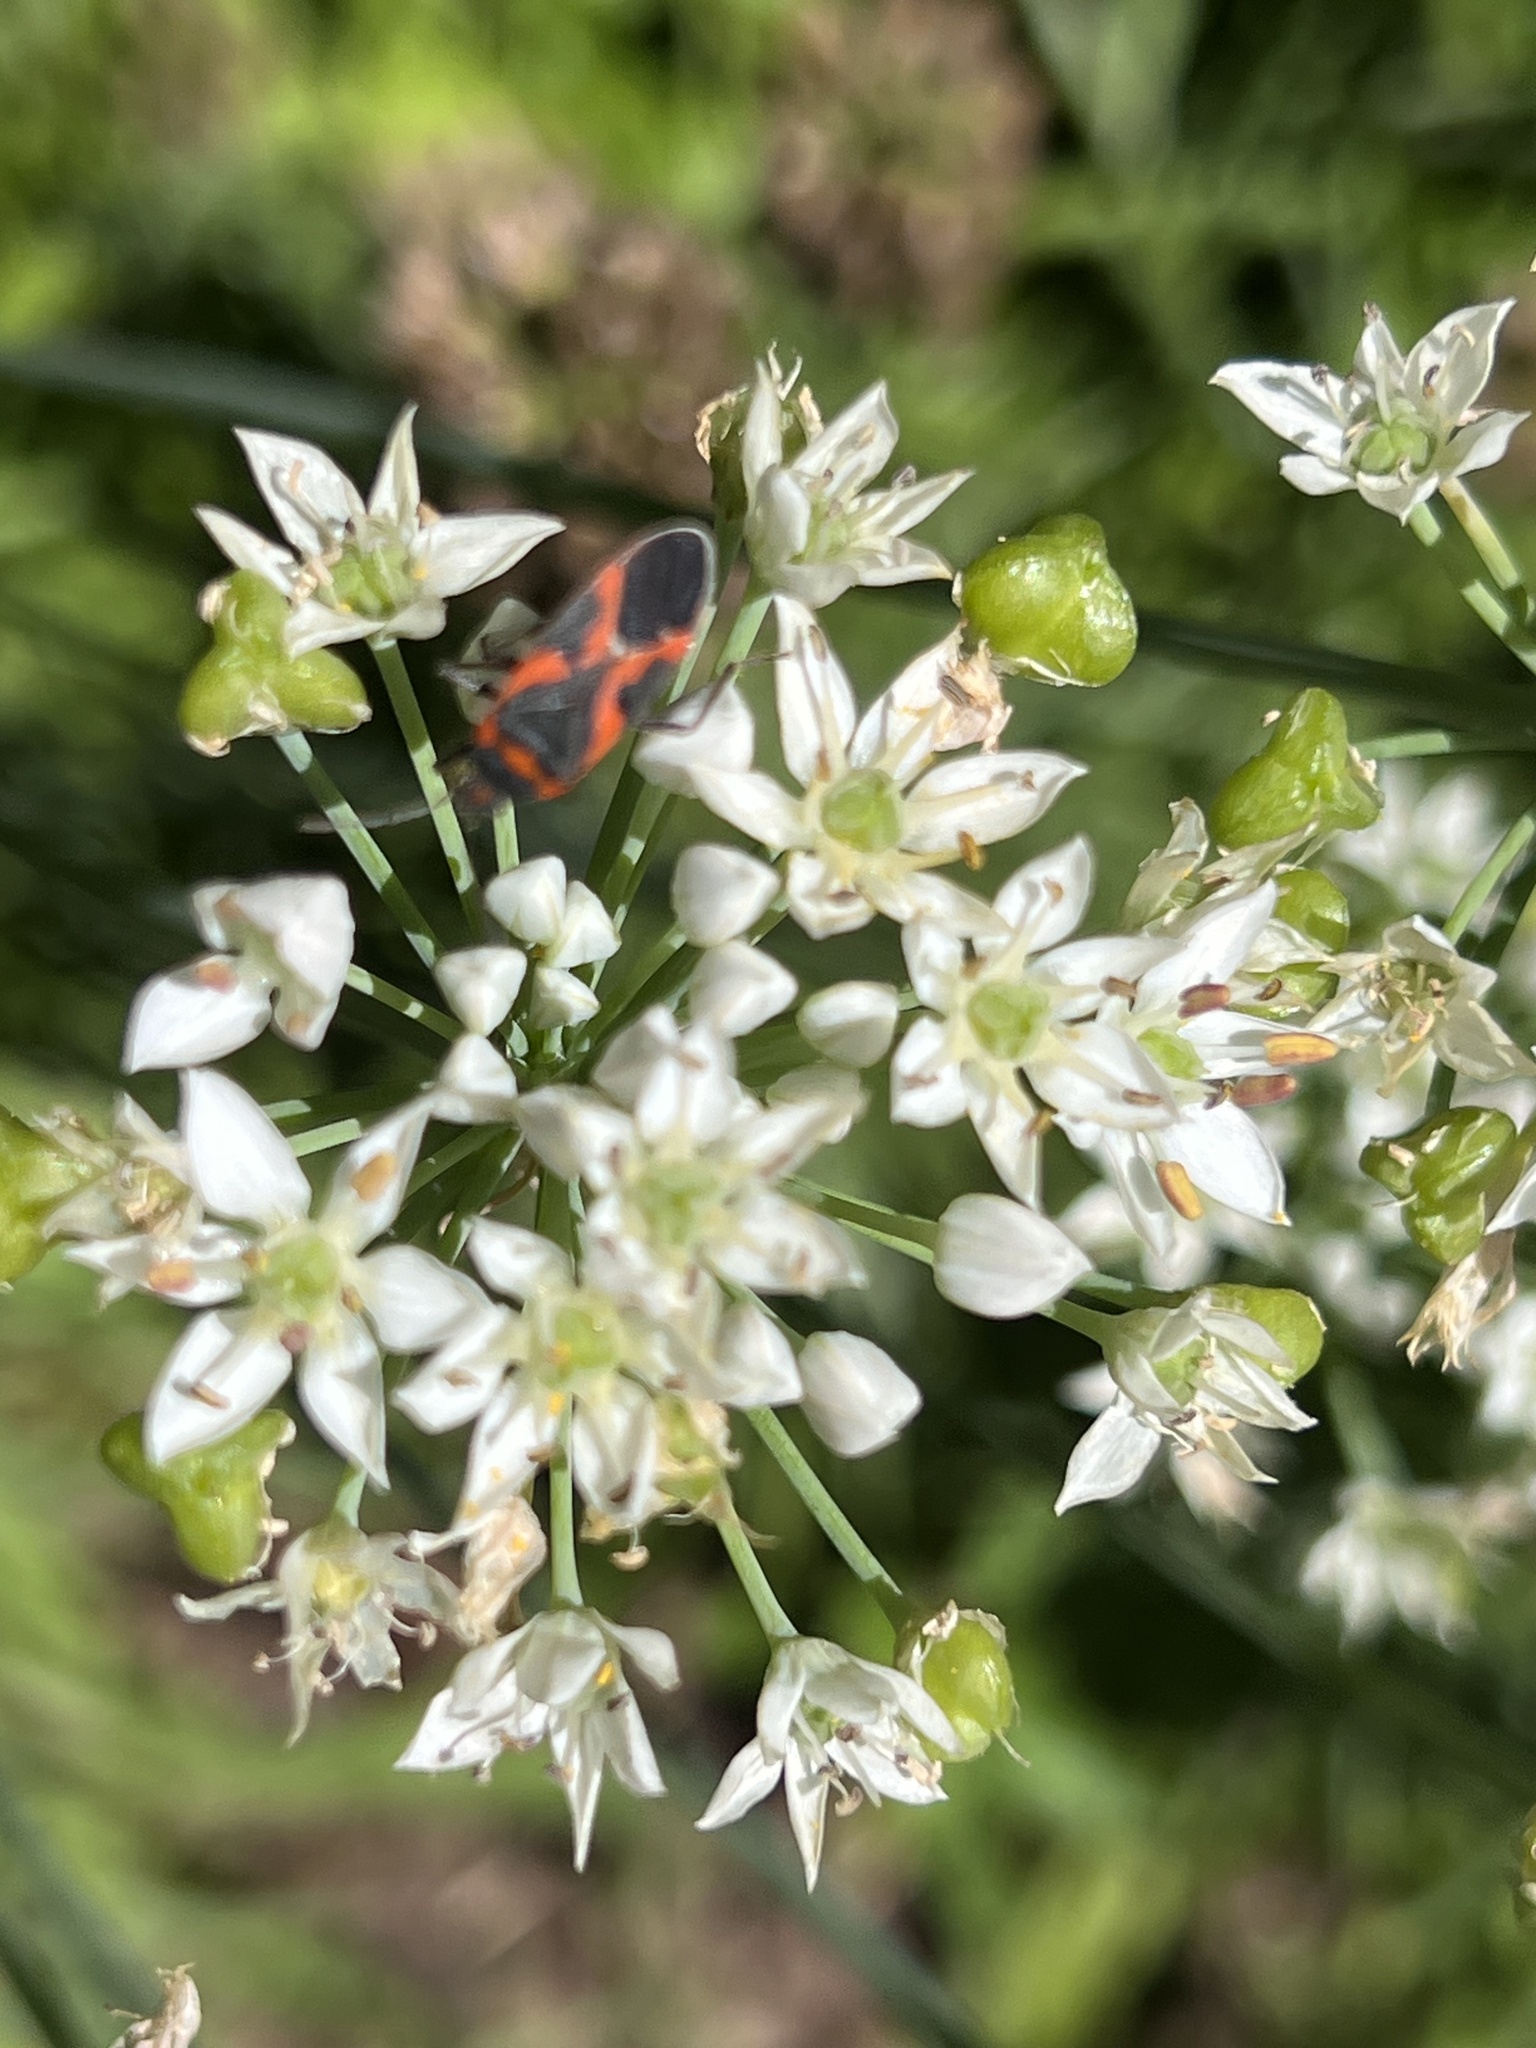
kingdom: Animalia
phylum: Arthropoda
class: Insecta
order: Hemiptera
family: Lygaeidae
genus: Lygaeus
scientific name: Lygaeus kalmii
